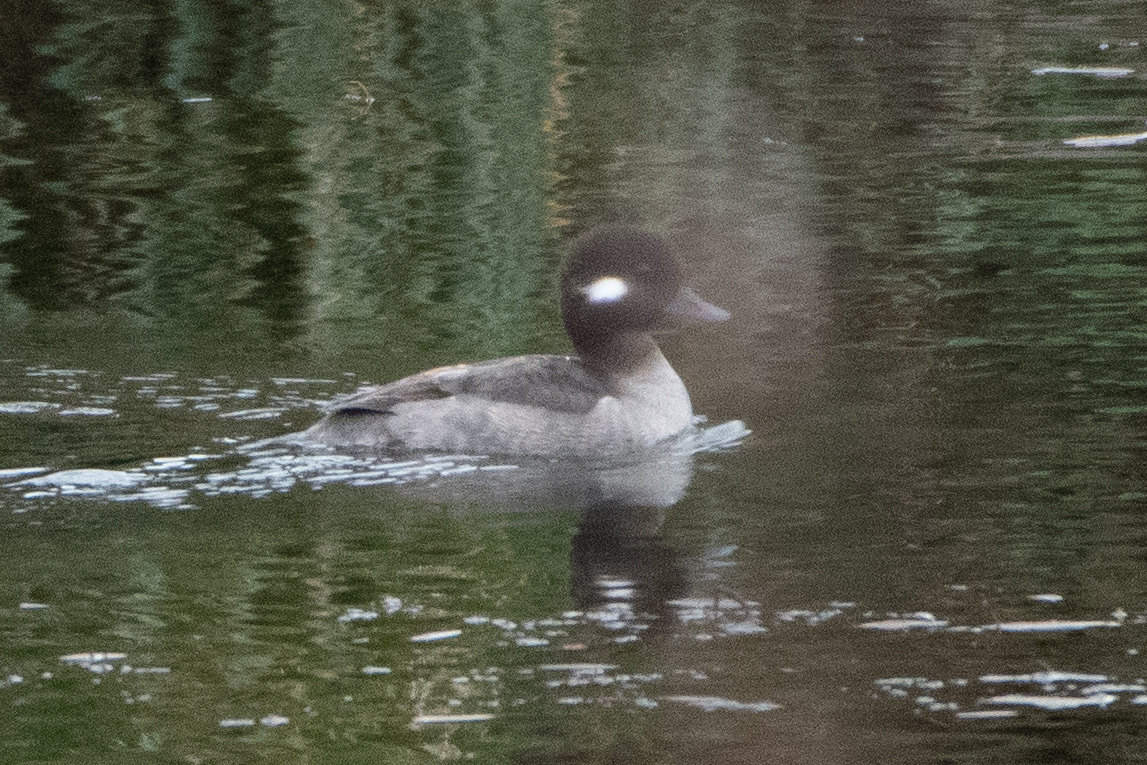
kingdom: Animalia
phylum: Chordata
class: Aves
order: Anseriformes
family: Anatidae
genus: Bucephala
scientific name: Bucephala albeola
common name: Bufflehead
